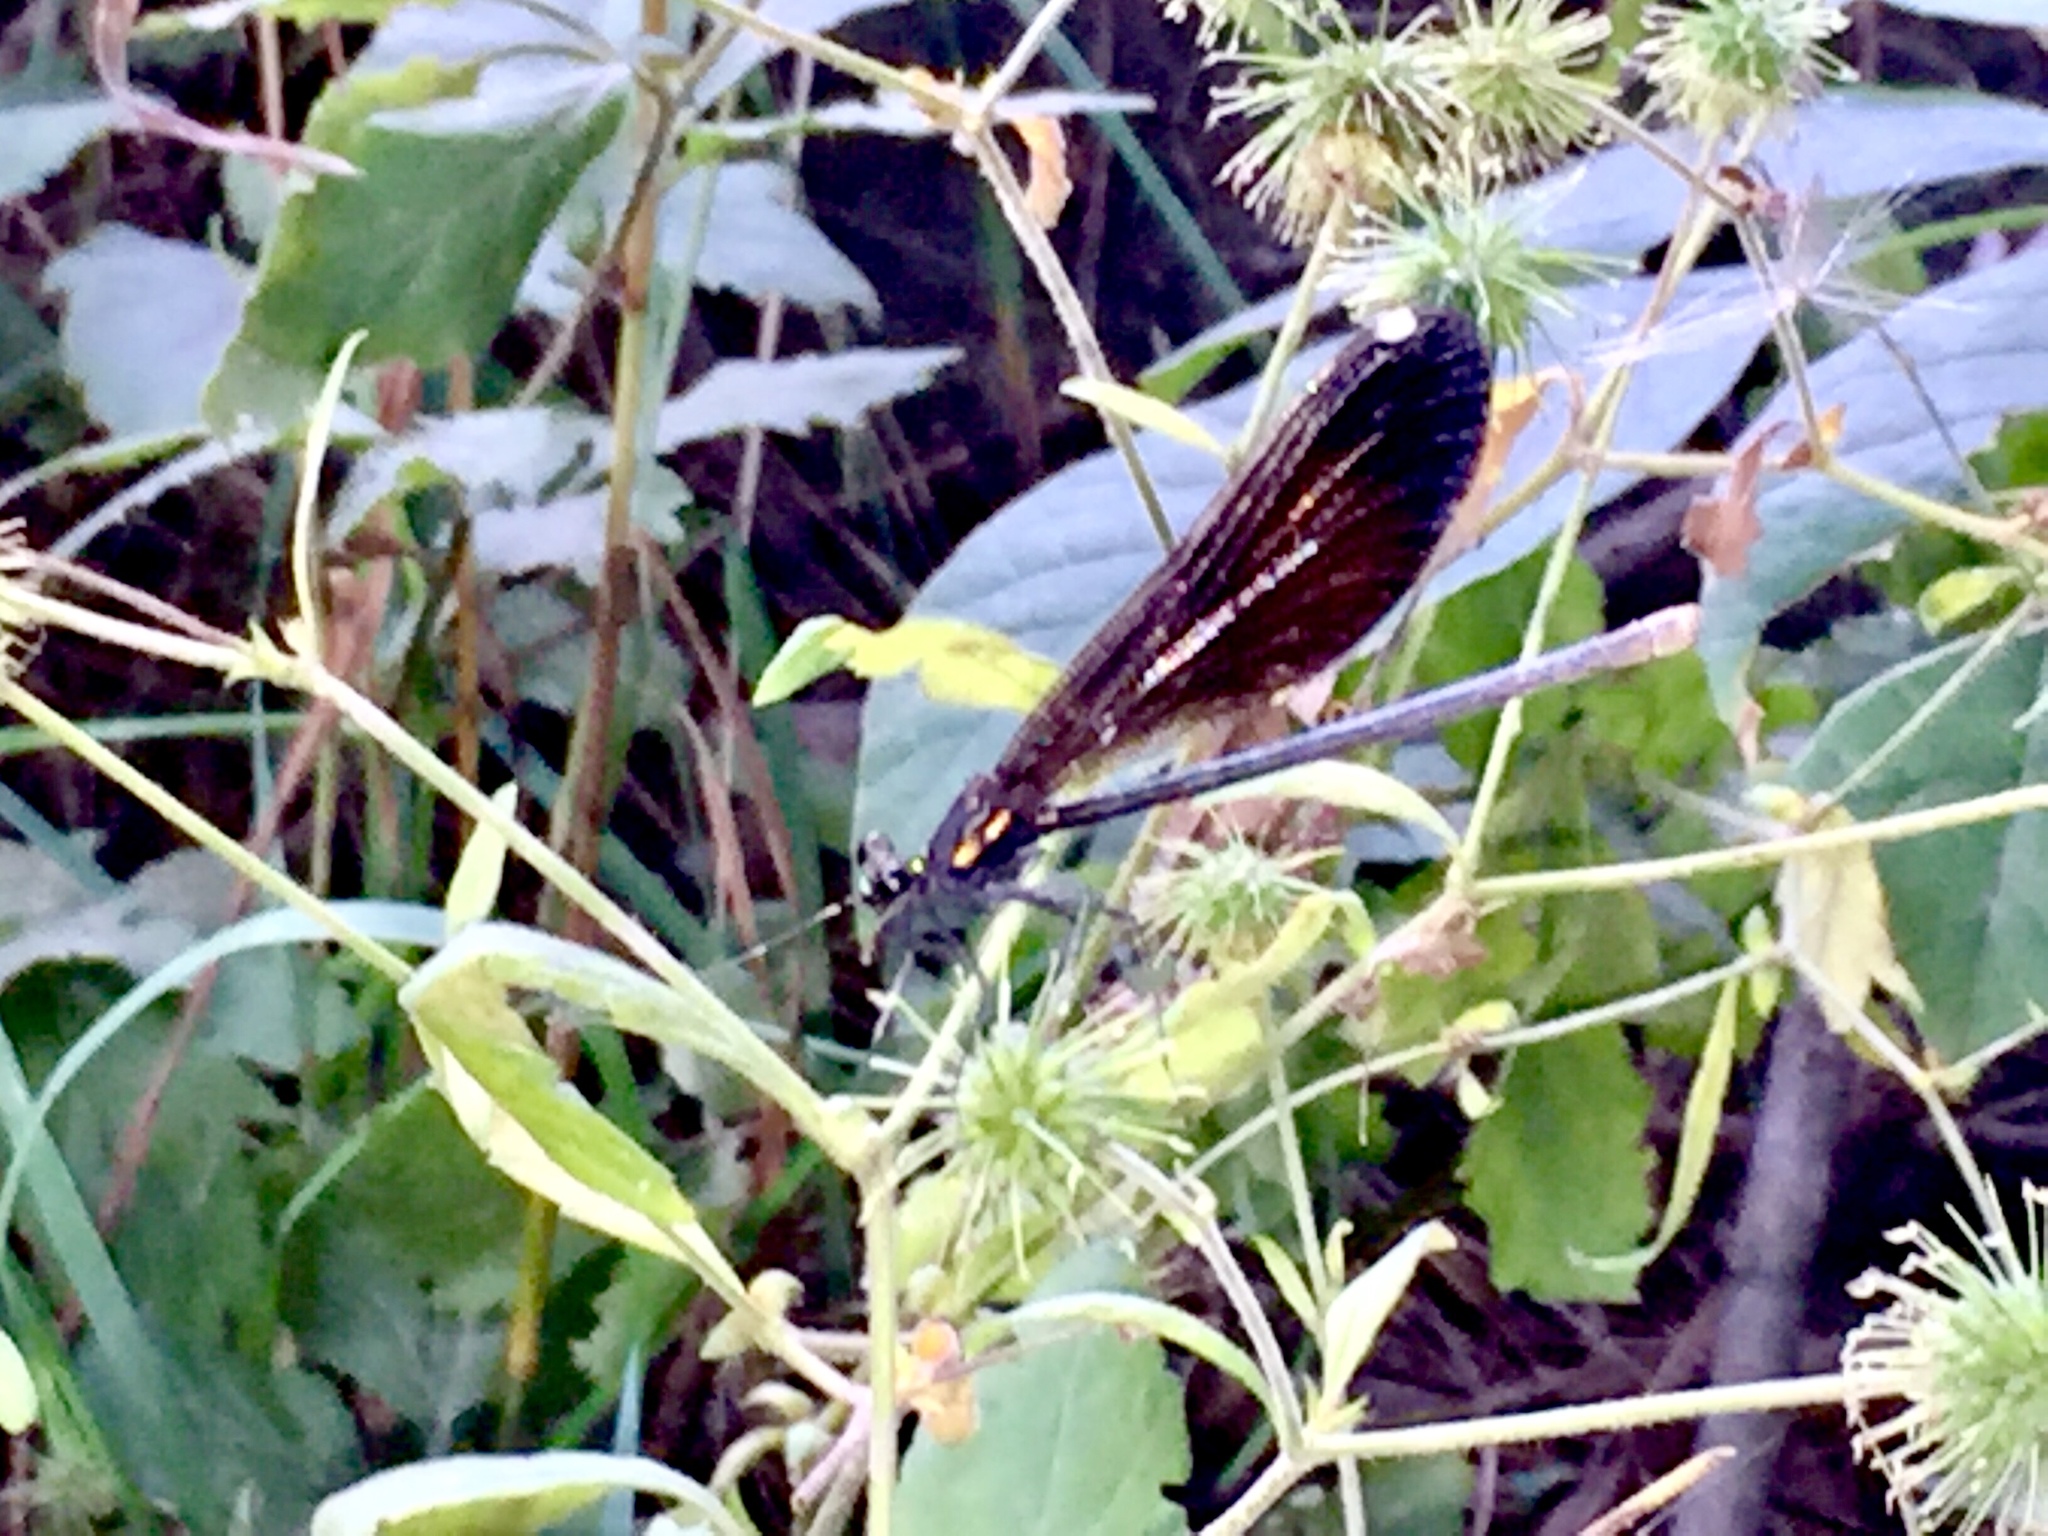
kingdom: Animalia
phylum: Arthropoda
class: Insecta
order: Odonata
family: Calopterygidae
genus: Calopteryx
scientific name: Calopteryx maculata
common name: Ebony jewelwing
